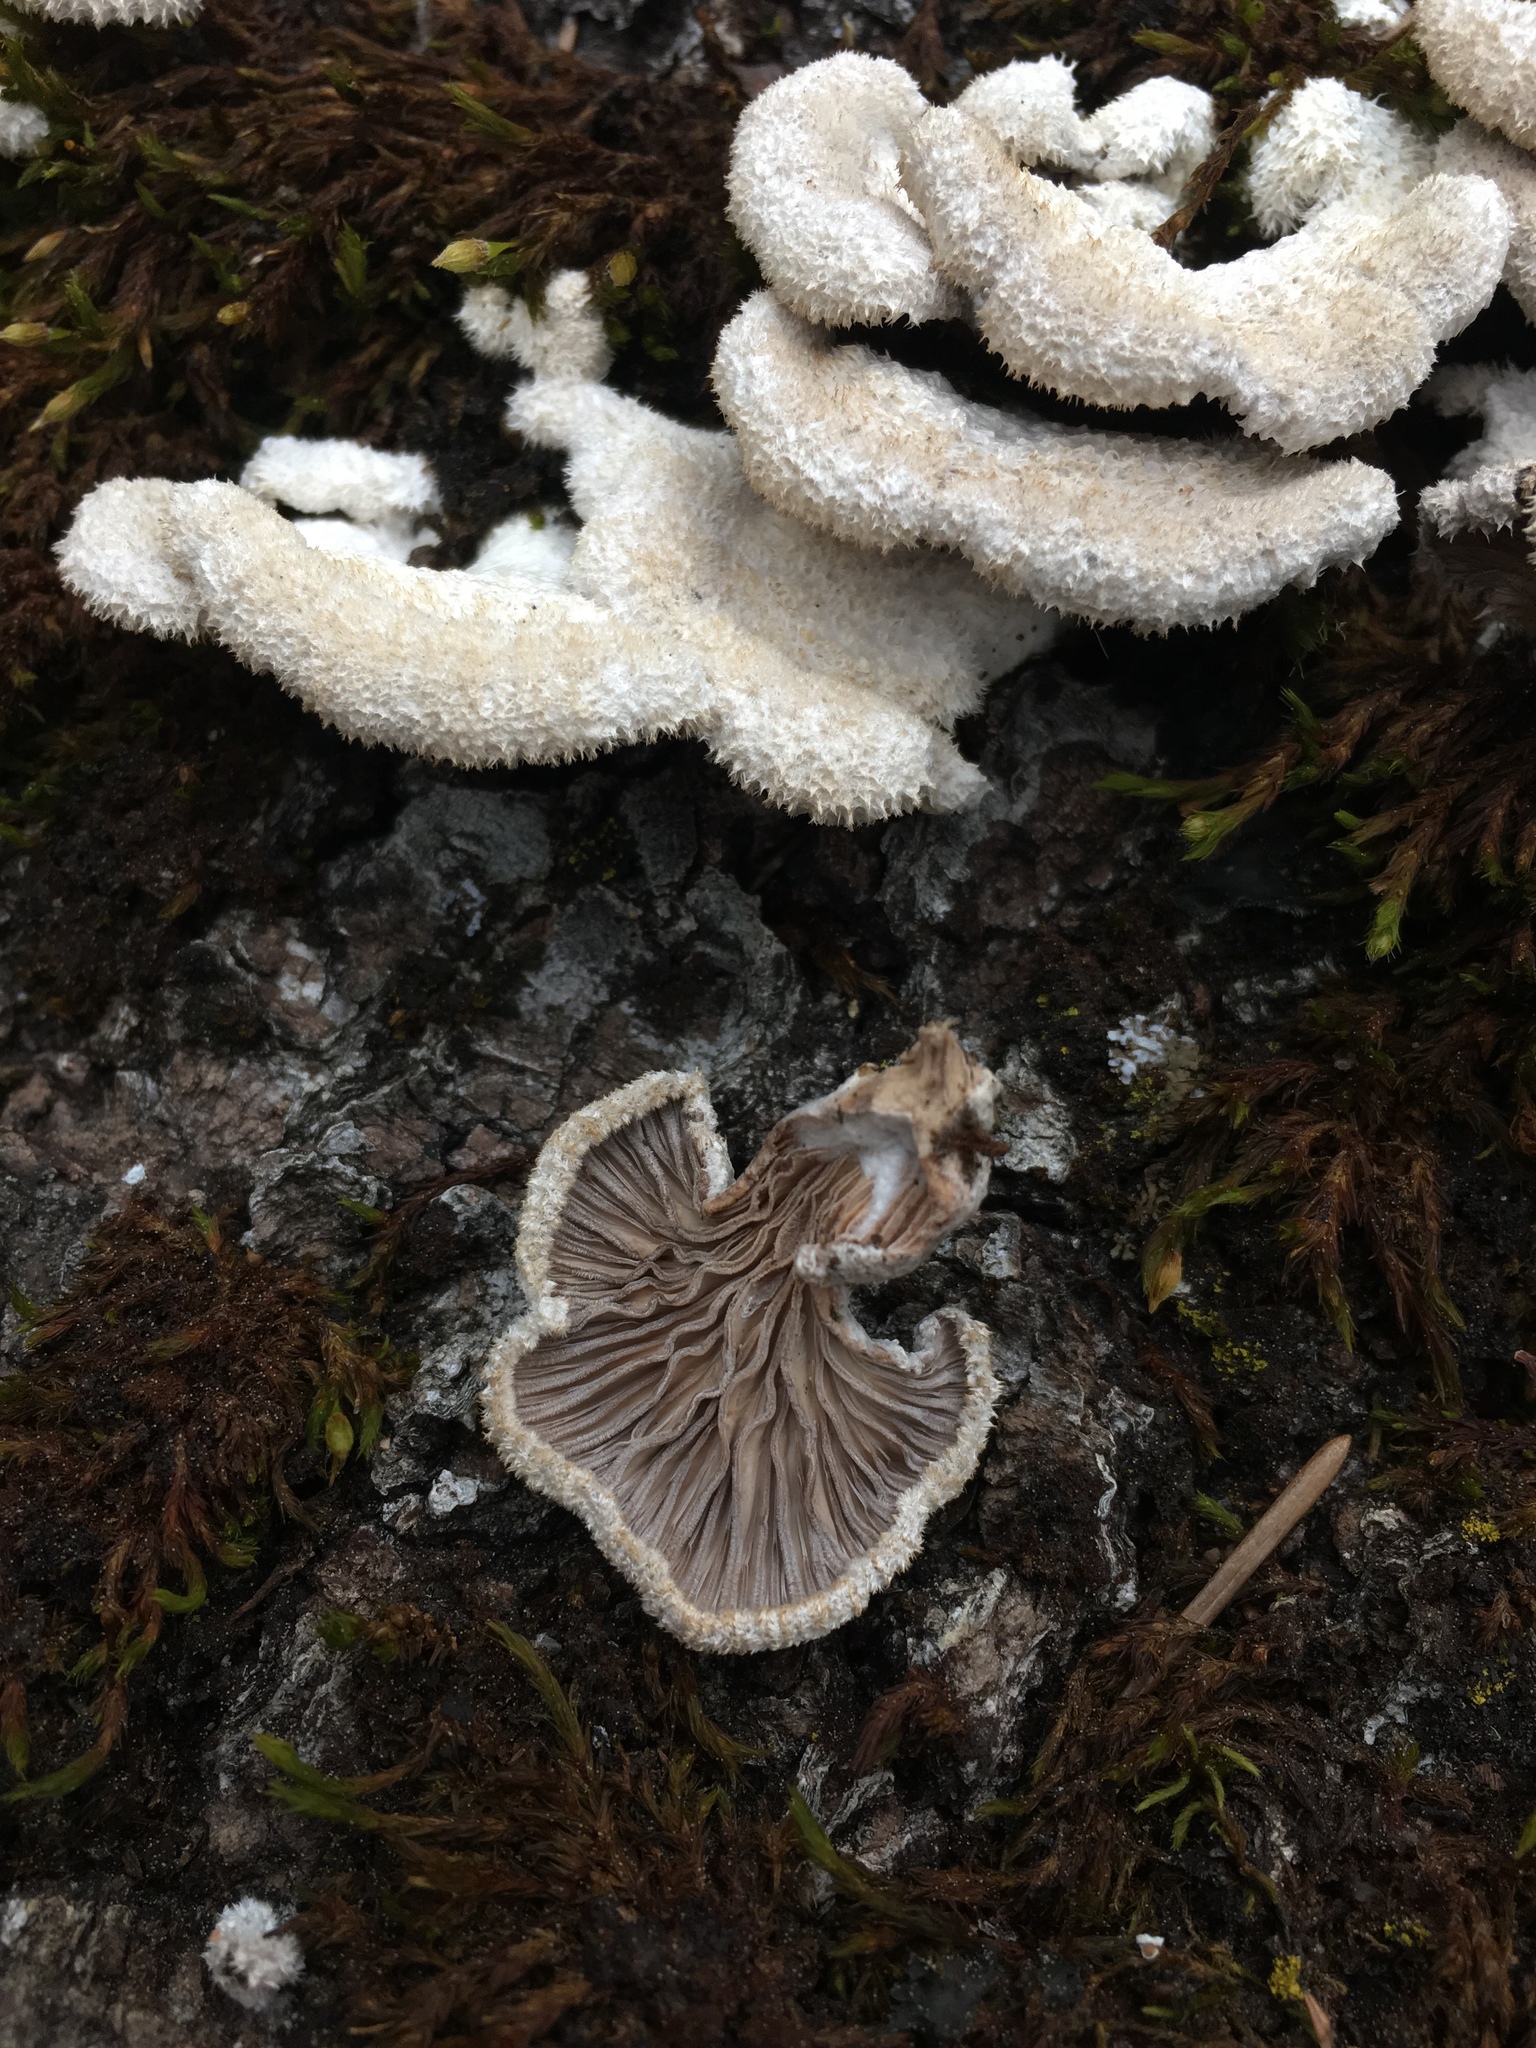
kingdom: Fungi
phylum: Basidiomycota
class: Agaricomycetes
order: Agaricales
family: Schizophyllaceae
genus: Schizophyllum
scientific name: Schizophyllum commune
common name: Common porecrust
